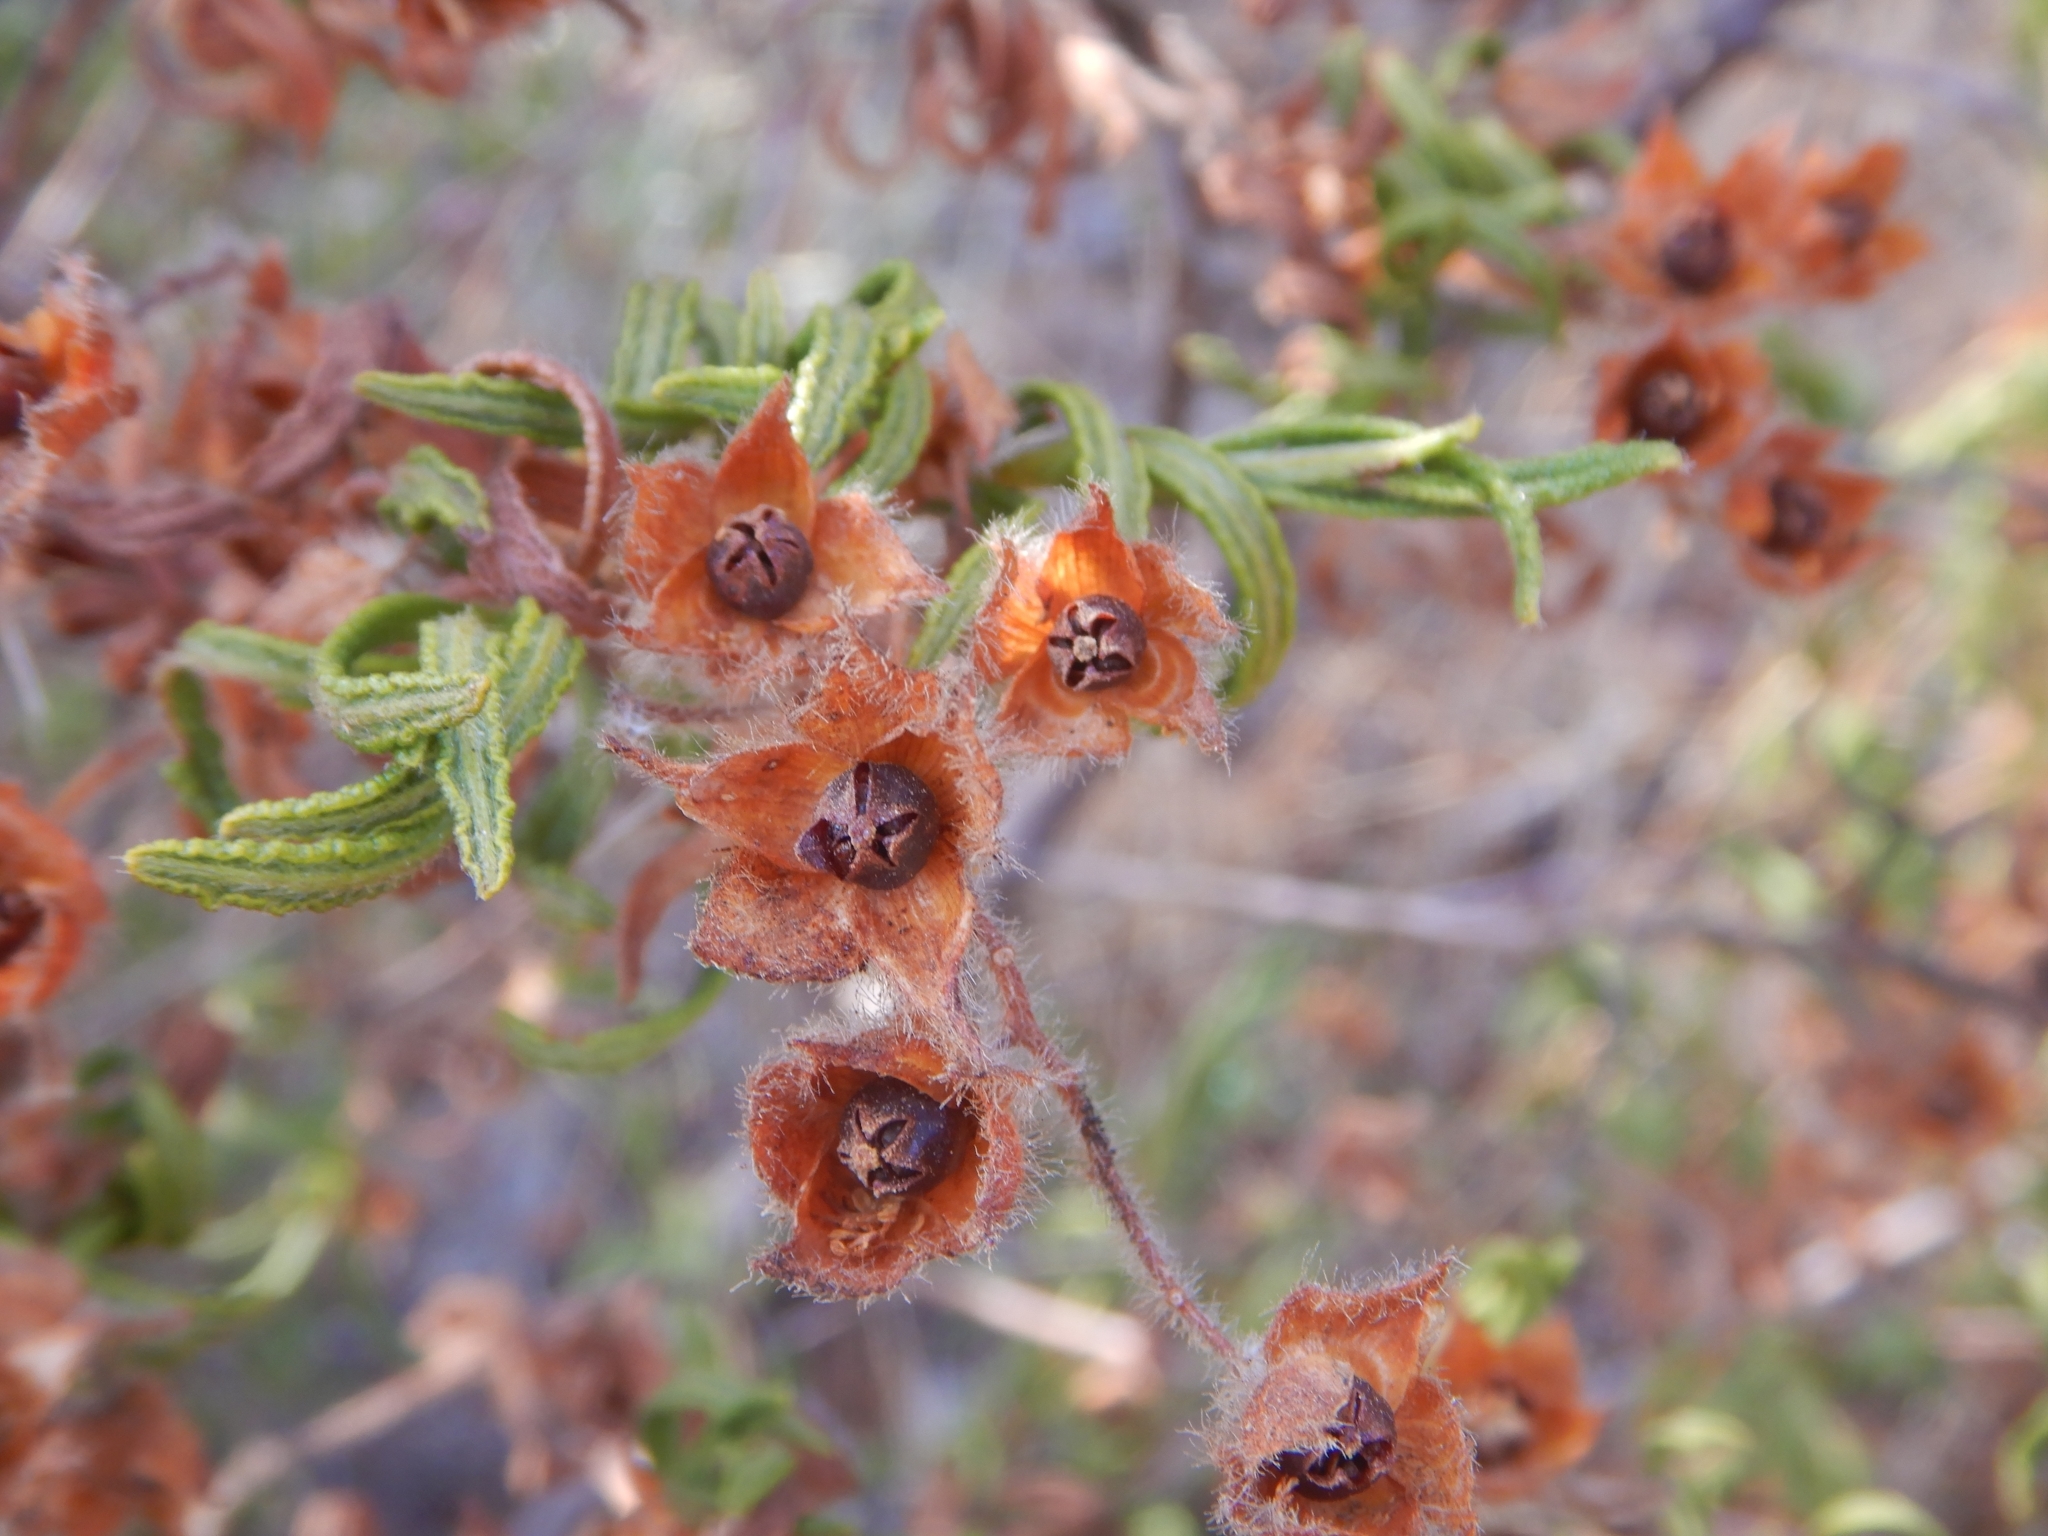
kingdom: Plantae
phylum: Tracheophyta
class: Magnoliopsida
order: Malvales
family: Cistaceae
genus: Cistus
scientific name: Cistus monspeliensis
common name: Montpelier cistus
